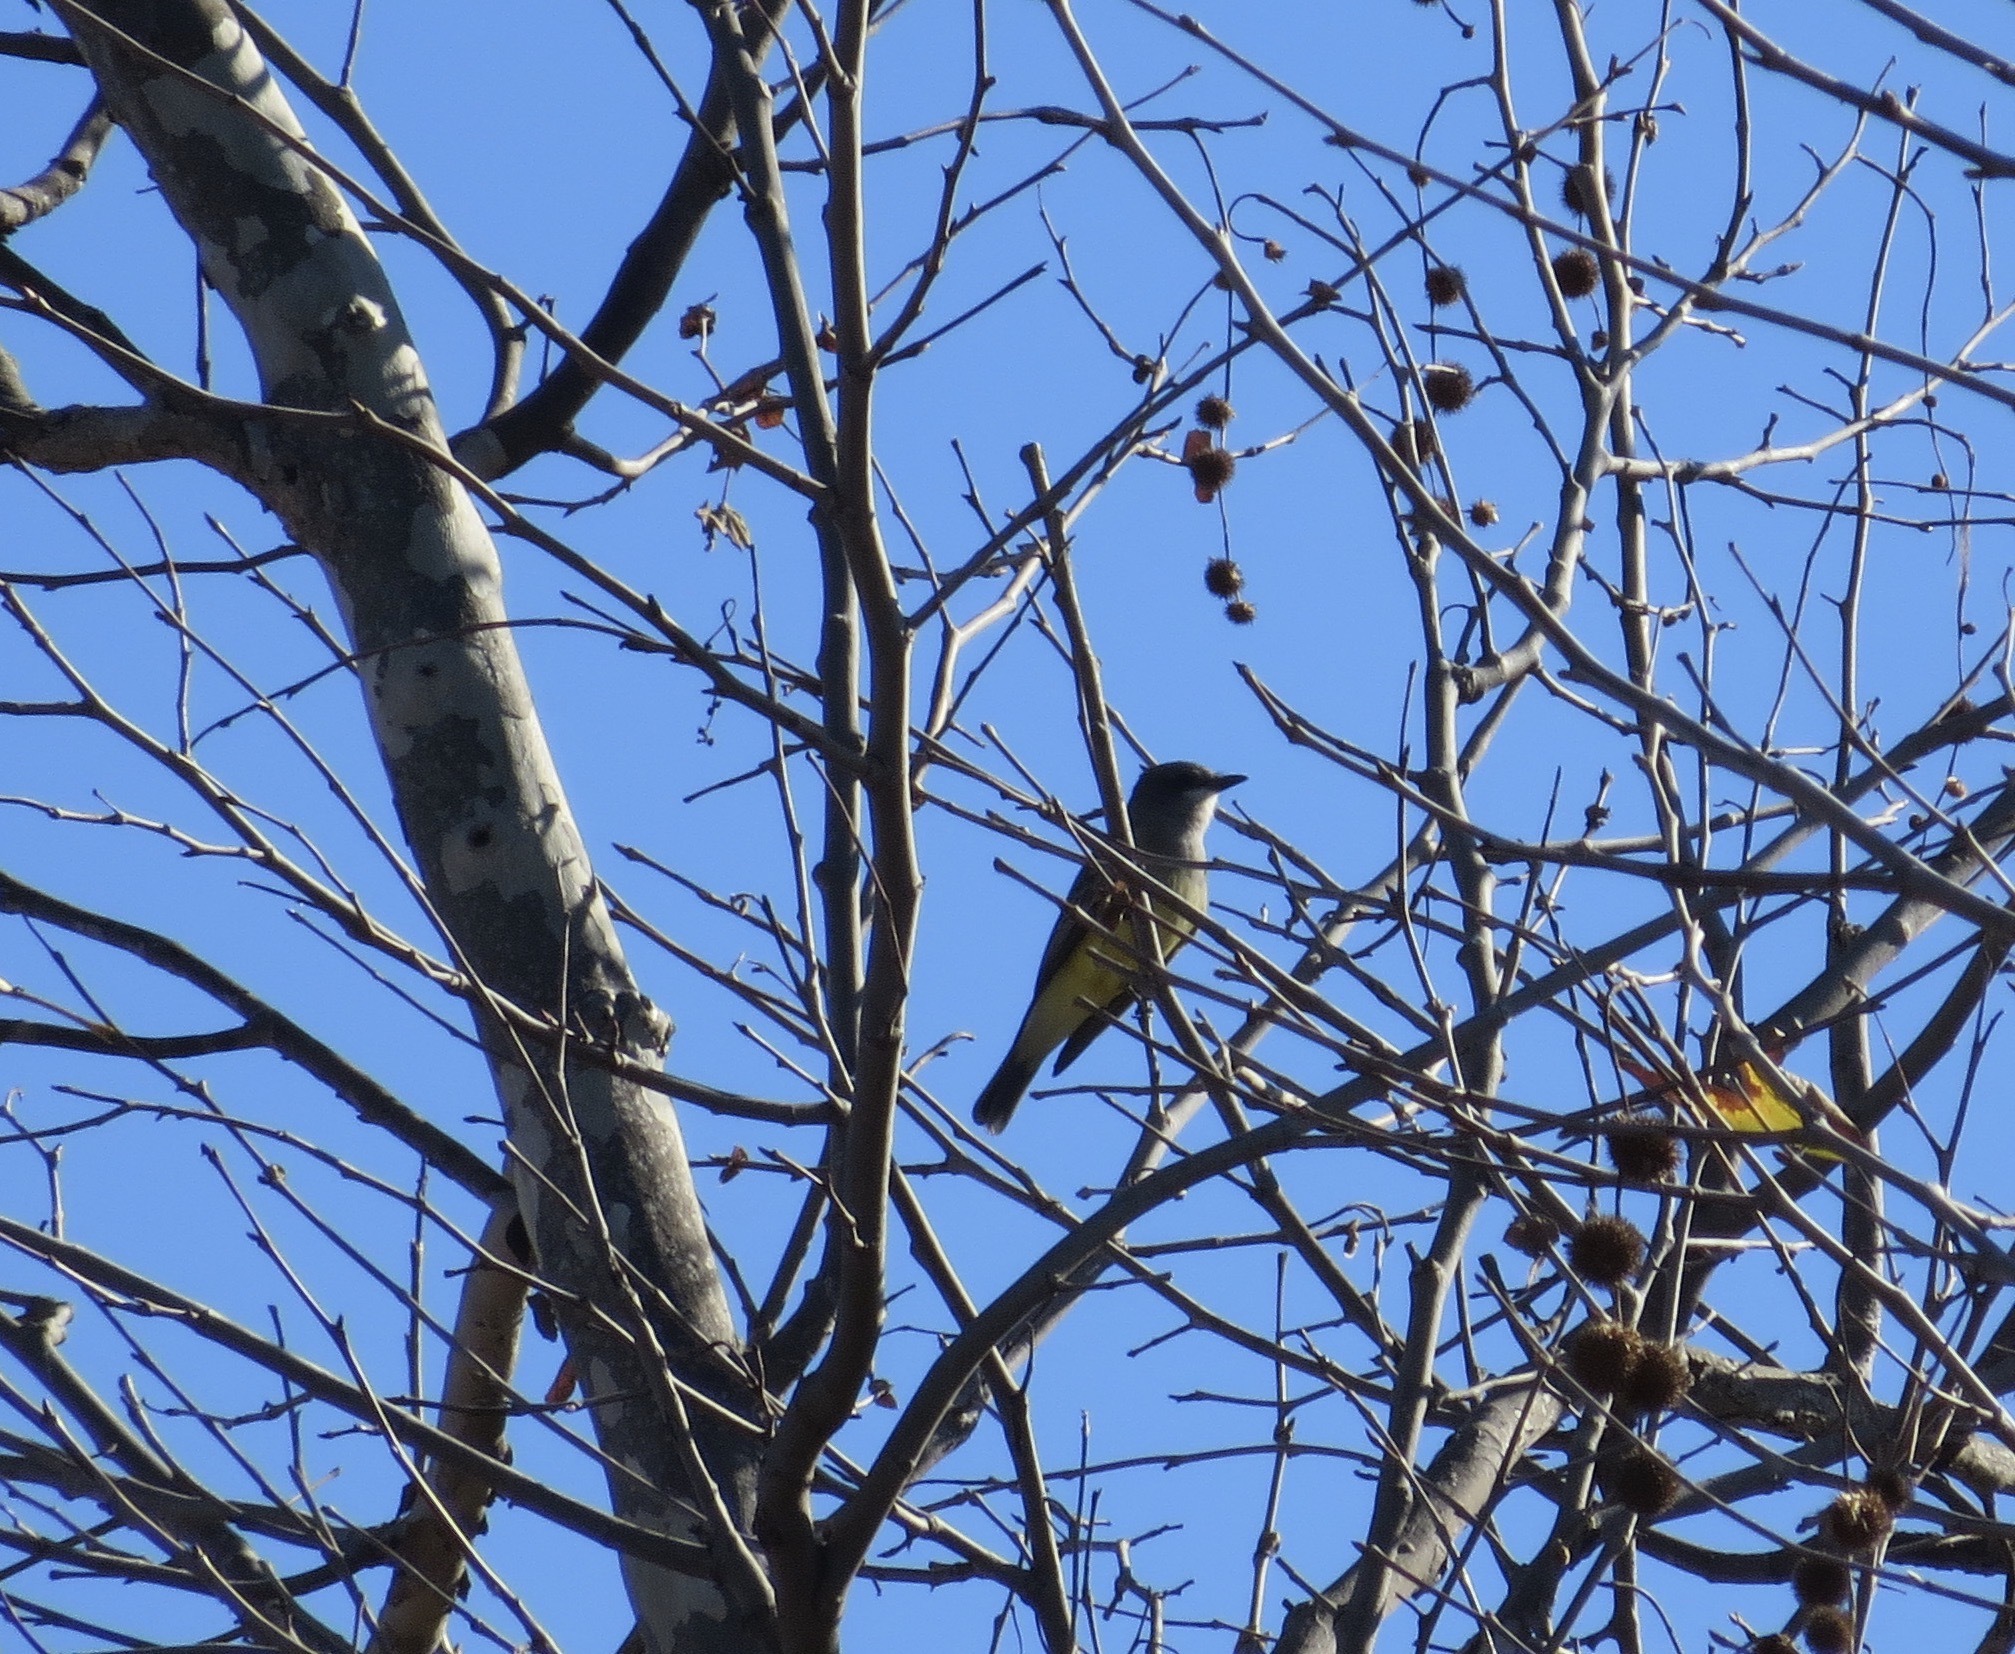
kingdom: Animalia
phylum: Chordata
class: Aves
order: Passeriformes
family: Tyrannidae
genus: Tyrannus
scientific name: Tyrannus vociferans
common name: Cassin's kingbird
